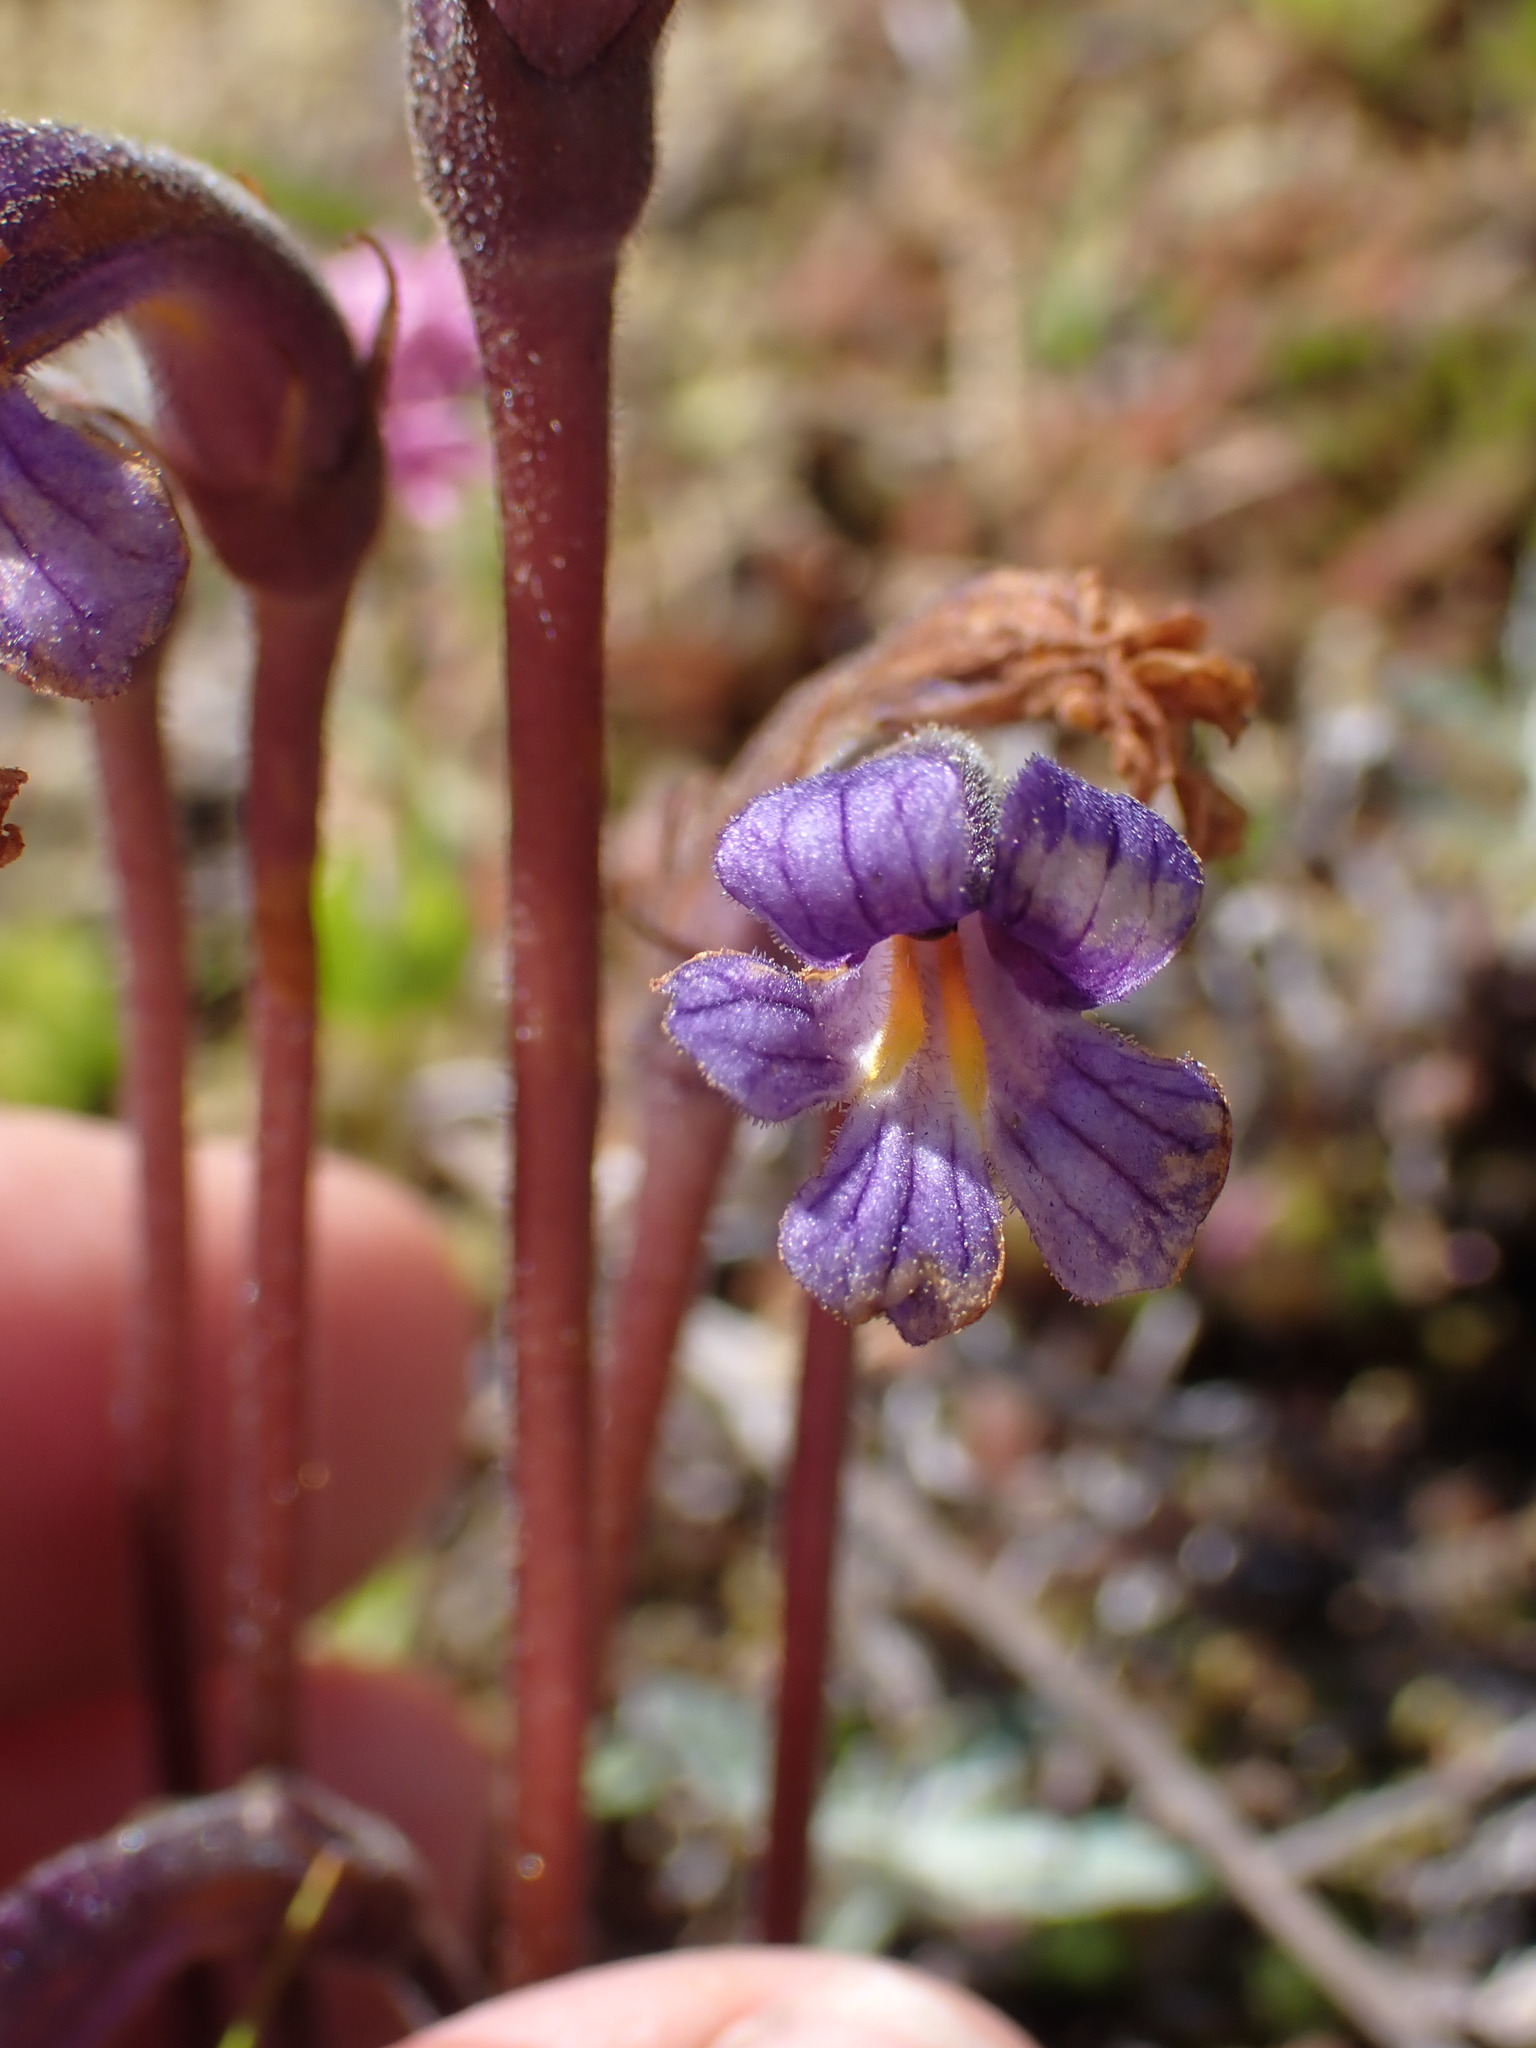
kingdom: Plantae
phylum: Tracheophyta
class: Magnoliopsida
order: Lamiales
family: Orobanchaceae
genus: Aphyllon
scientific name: Aphyllon uniflorum
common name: One-flowered broomrape
